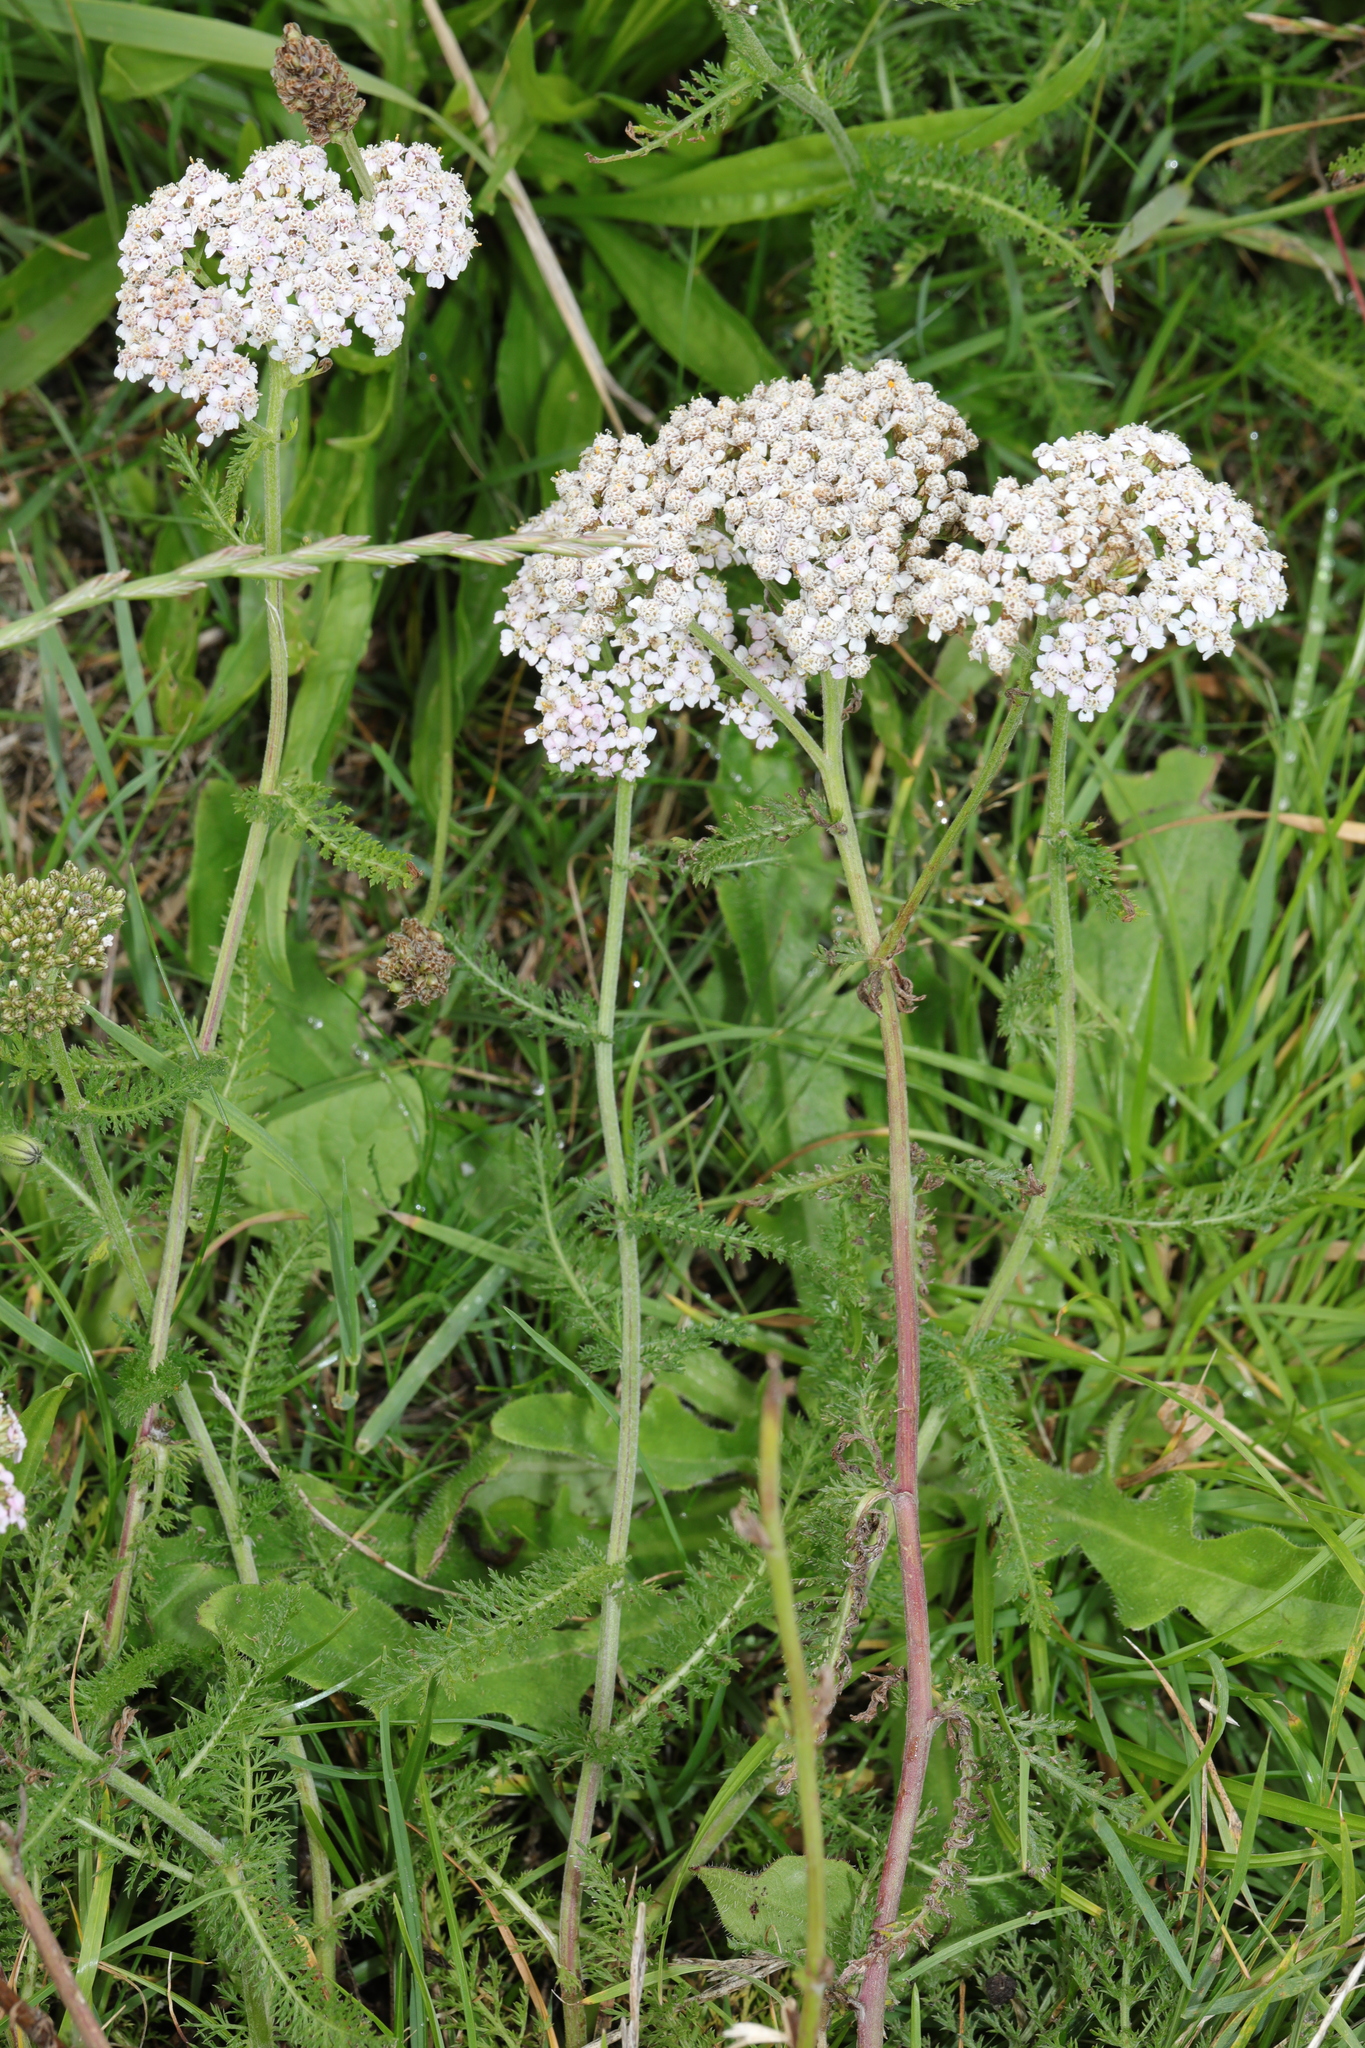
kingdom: Plantae
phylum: Tracheophyta
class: Magnoliopsida
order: Asterales
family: Asteraceae
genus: Achillea
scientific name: Achillea millefolium
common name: Yarrow
